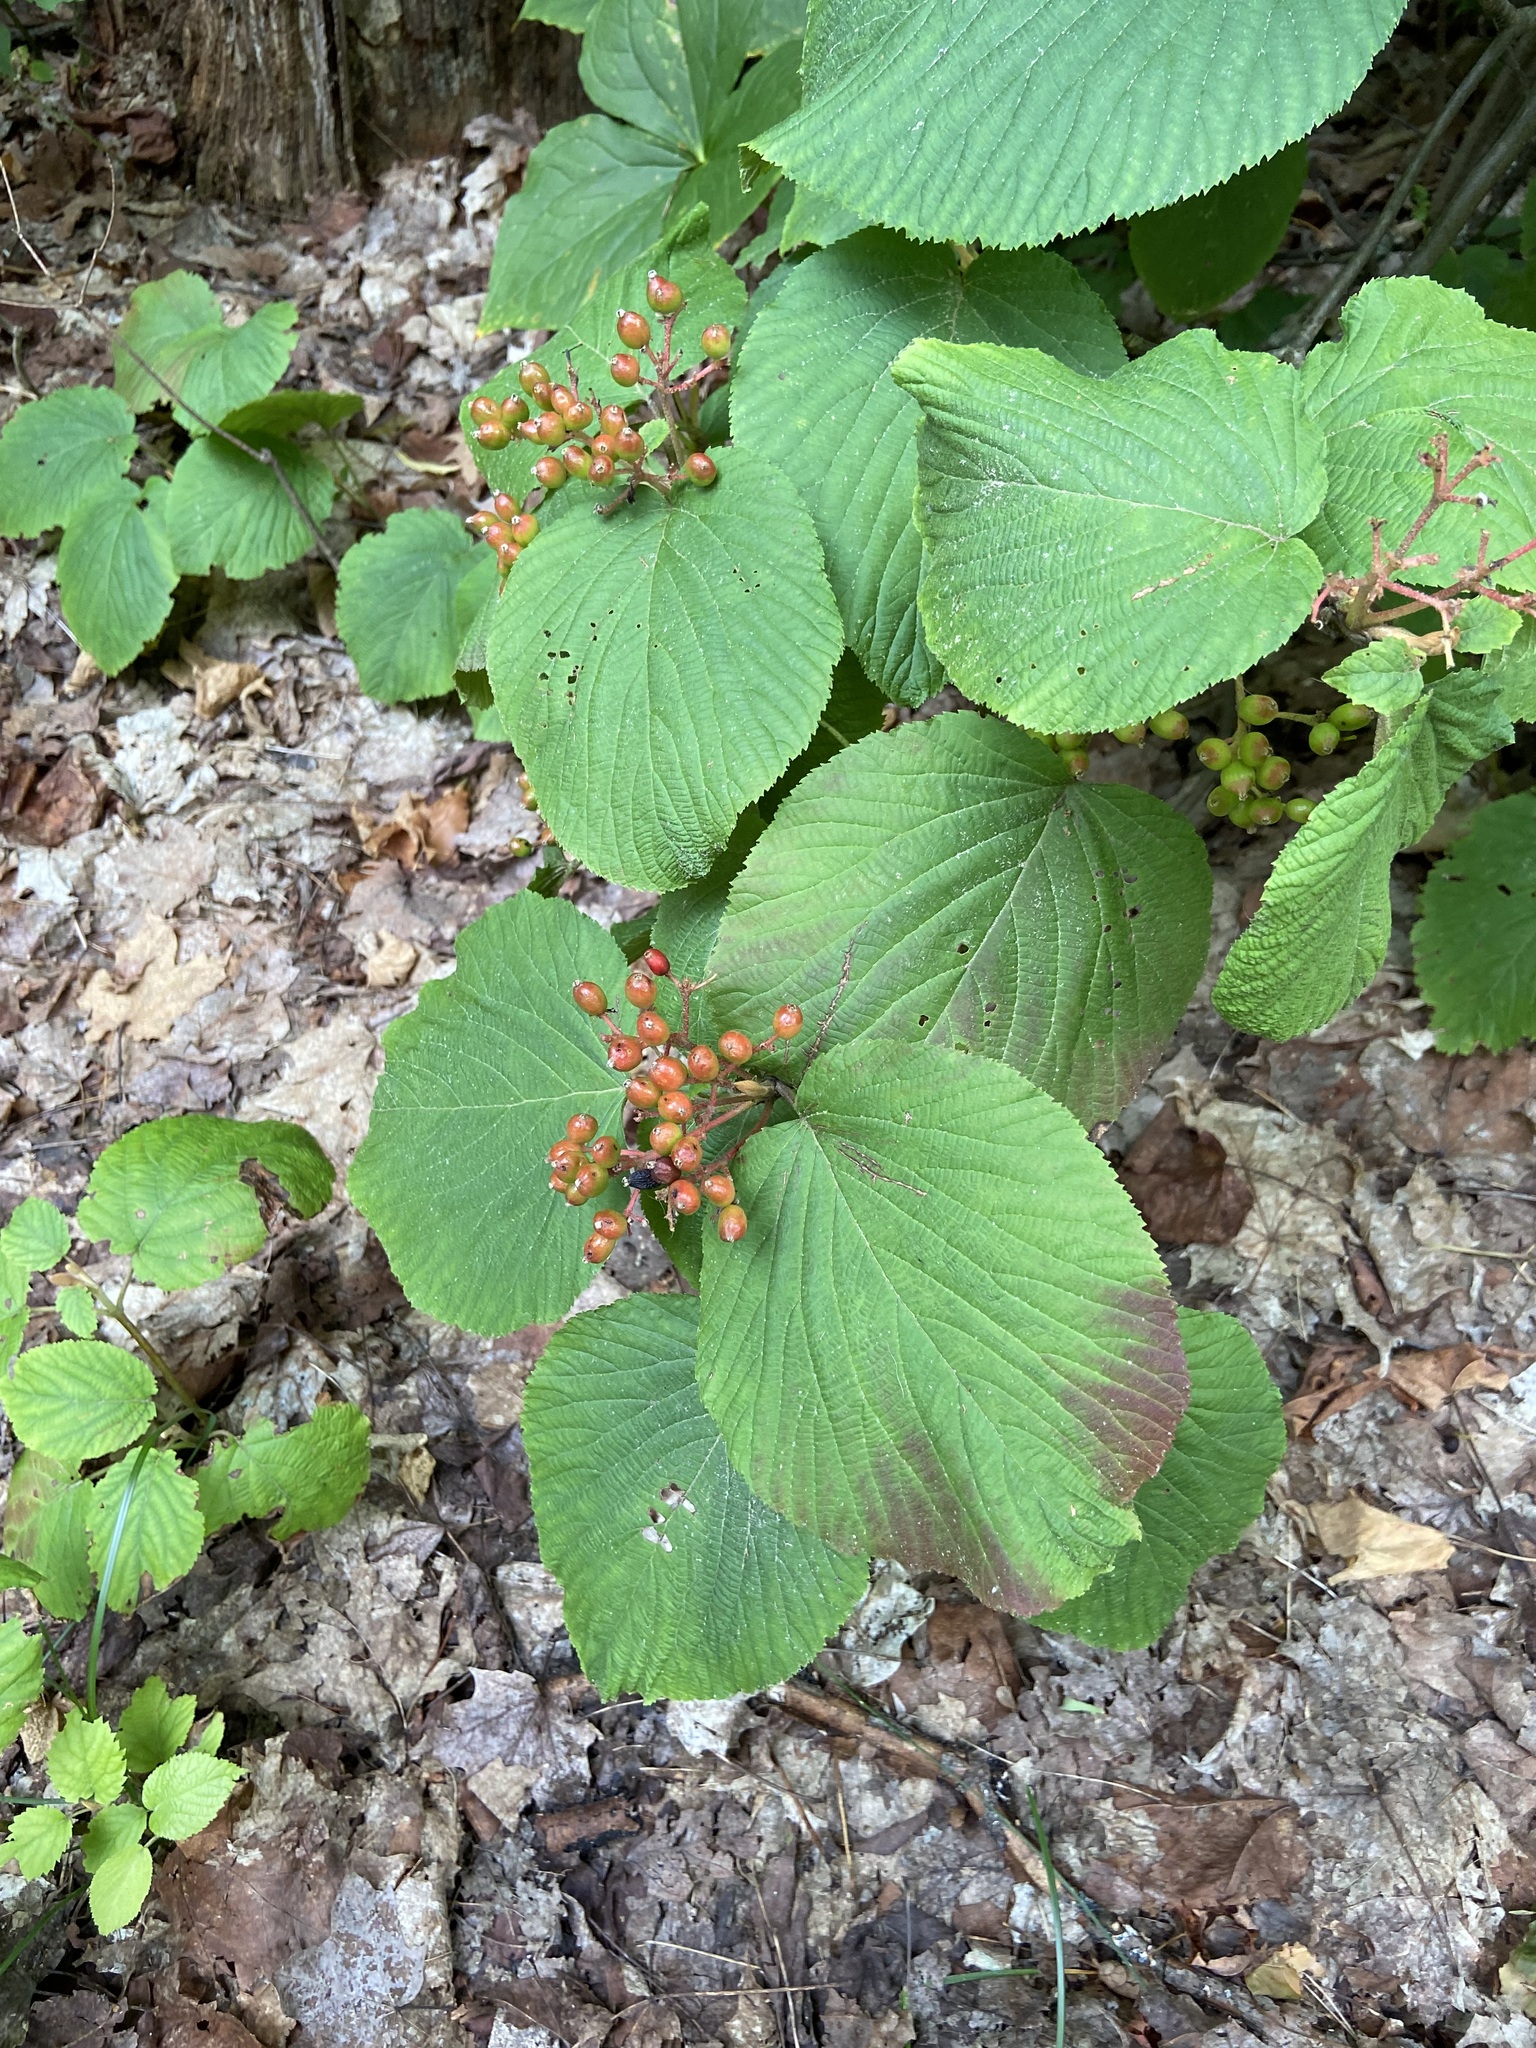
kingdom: Plantae
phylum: Tracheophyta
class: Magnoliopsida
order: Dipsacales
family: Viburnaceae
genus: Viburnum
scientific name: Viburnum lantanoides
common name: Hobblebush
